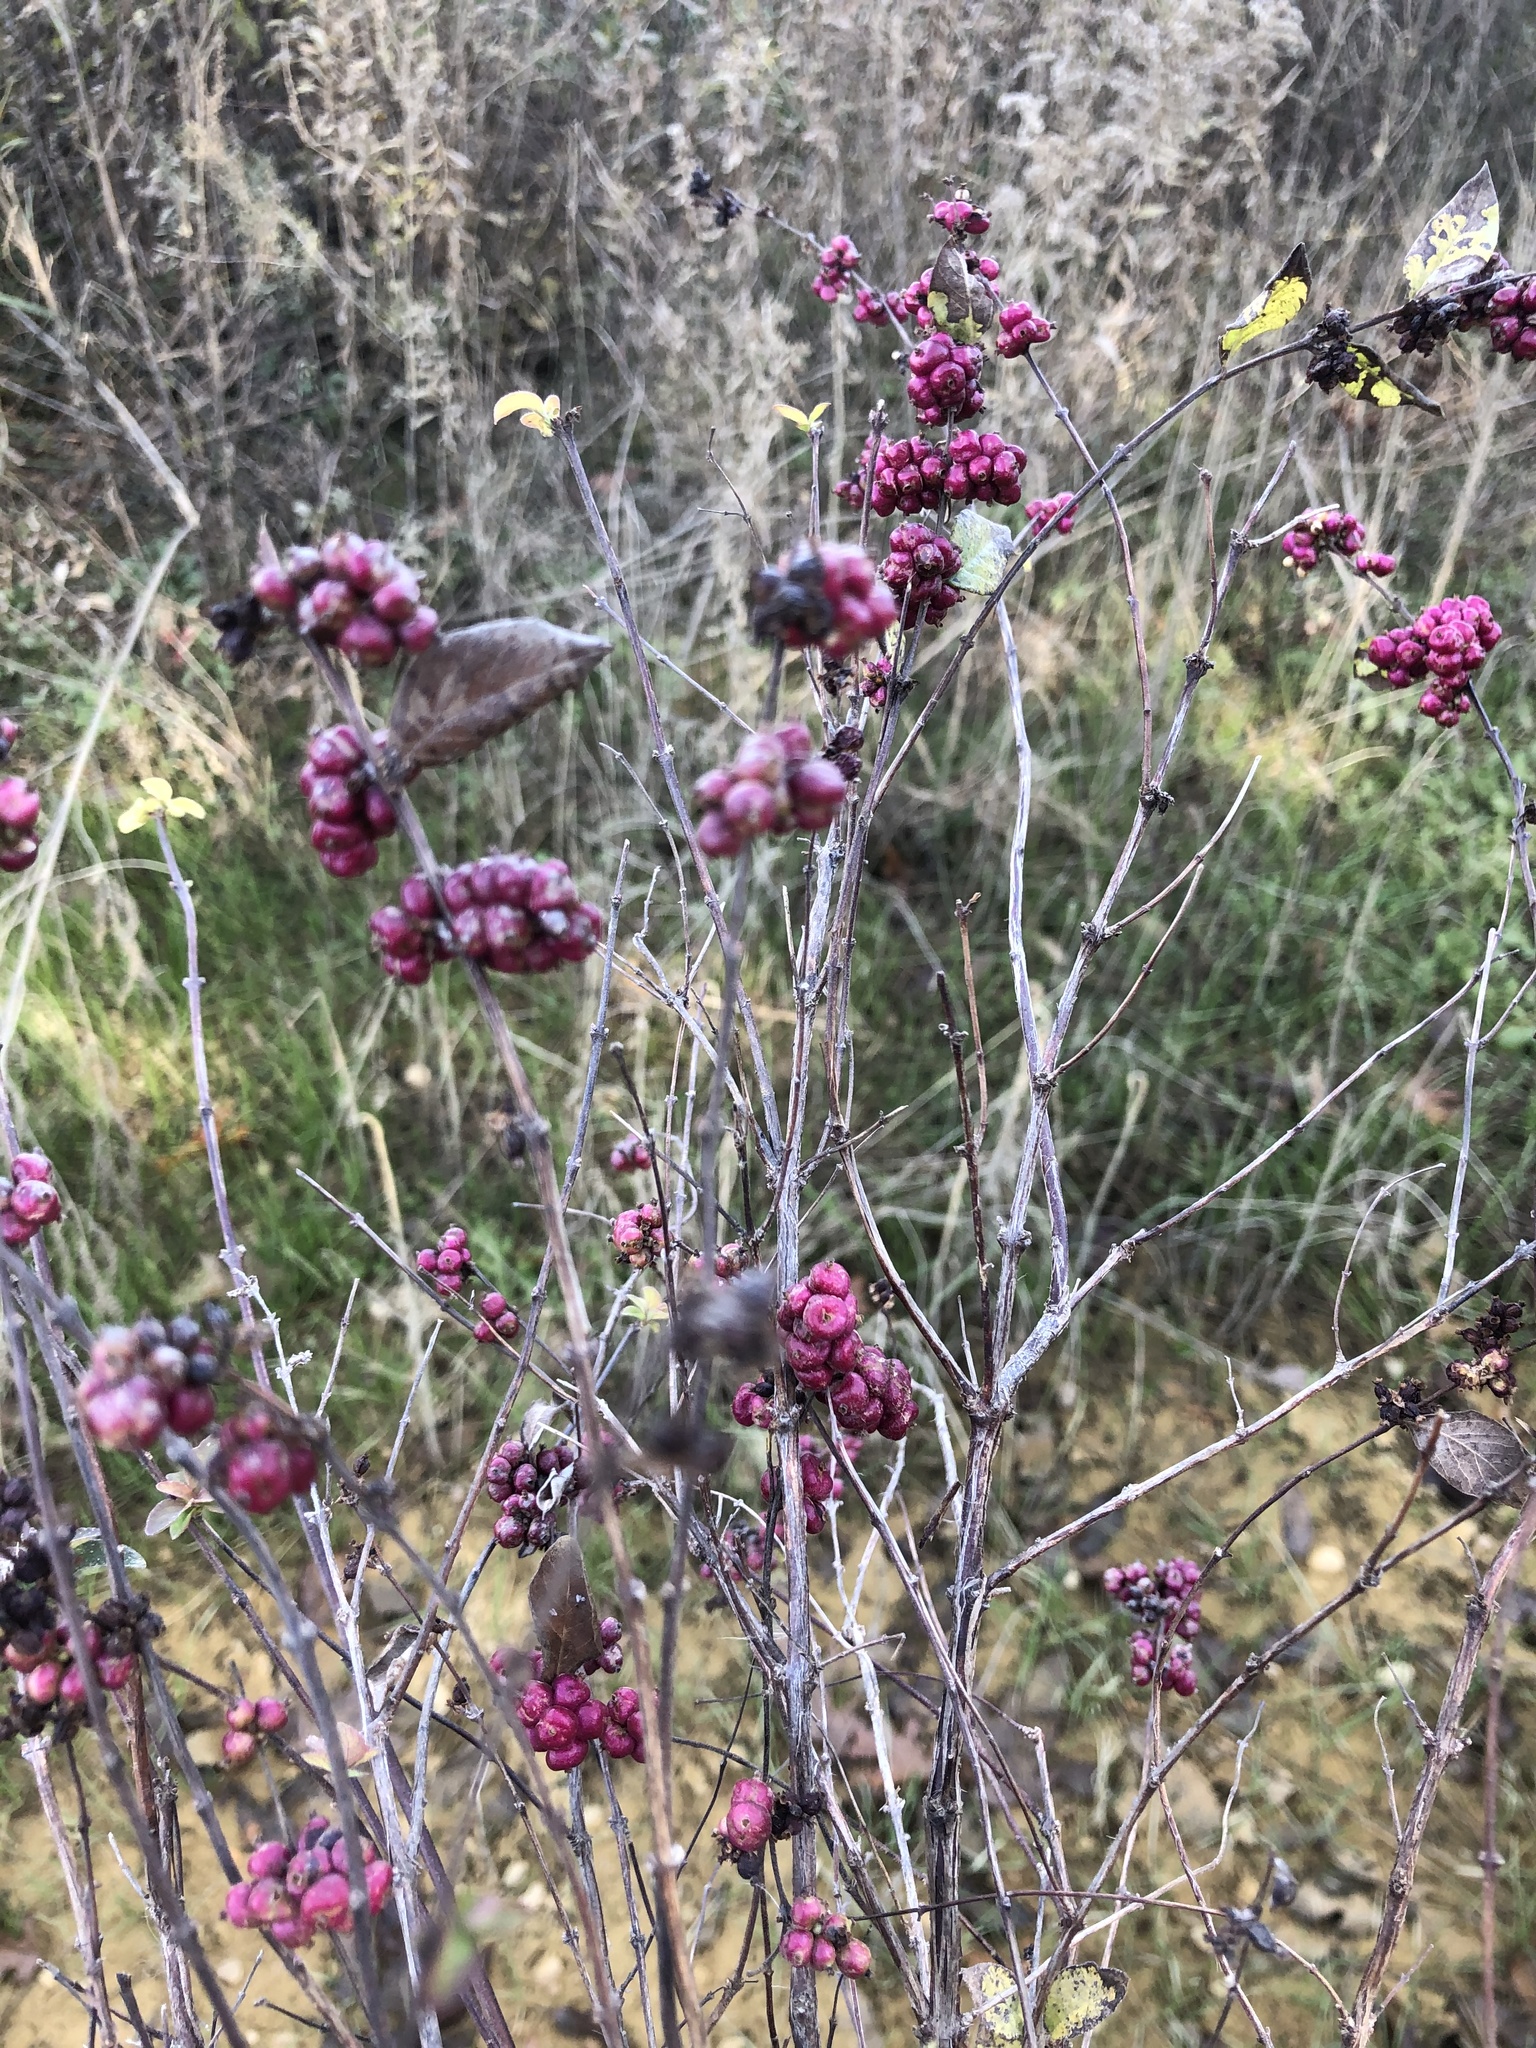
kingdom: Plantae
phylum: Tracheophyta
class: Magnoliopsida
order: Dipsacales
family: Caprifoliaceae
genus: Symphoricarpos
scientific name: Symphoricarpos orbiculatus
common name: Coralberry
